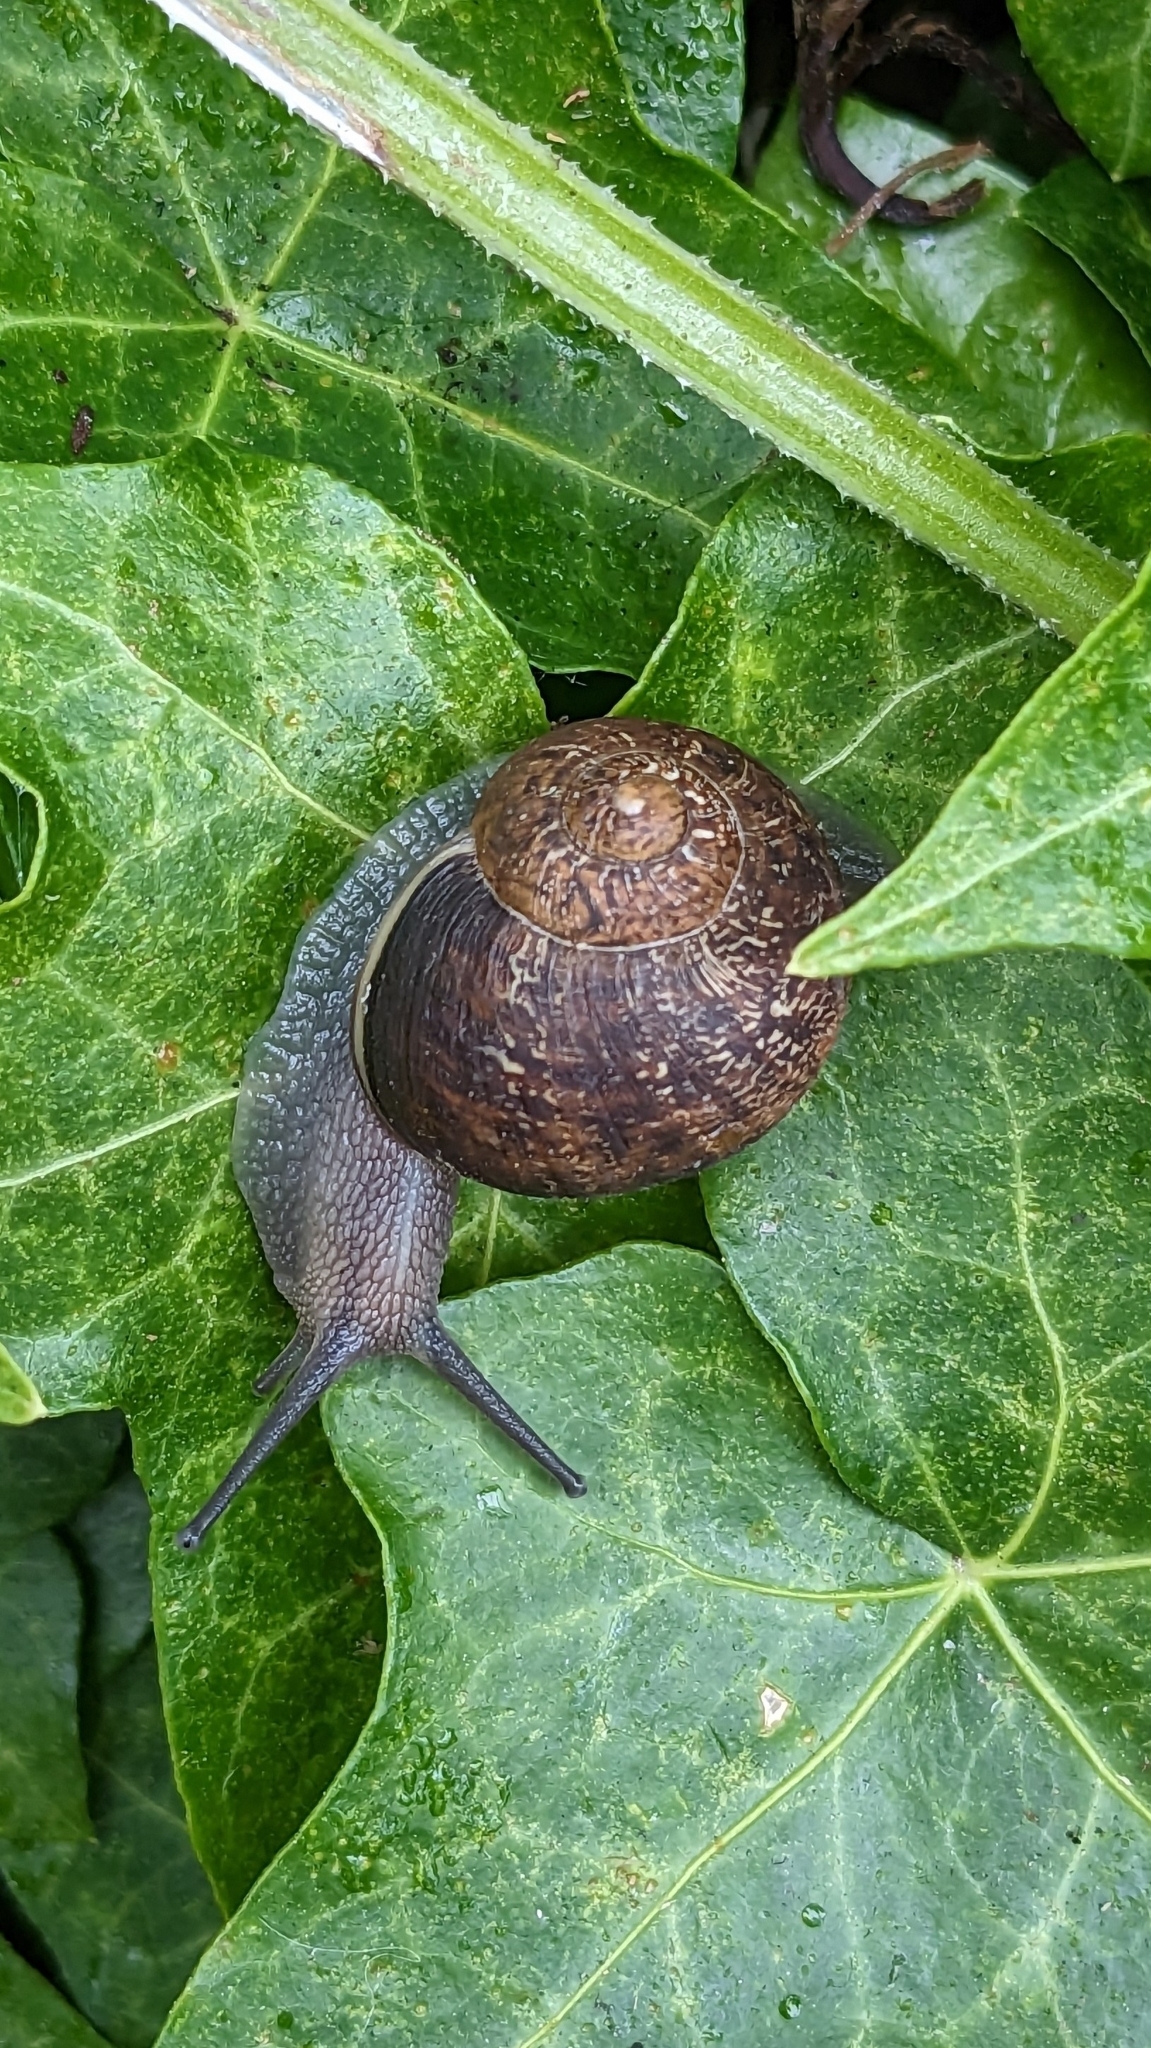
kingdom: Animalia
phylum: Mollusca
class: Gastropoda
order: Stylommatophora
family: Helicidae
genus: Cornu
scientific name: Cornu aspersum
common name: Brown garden snail
